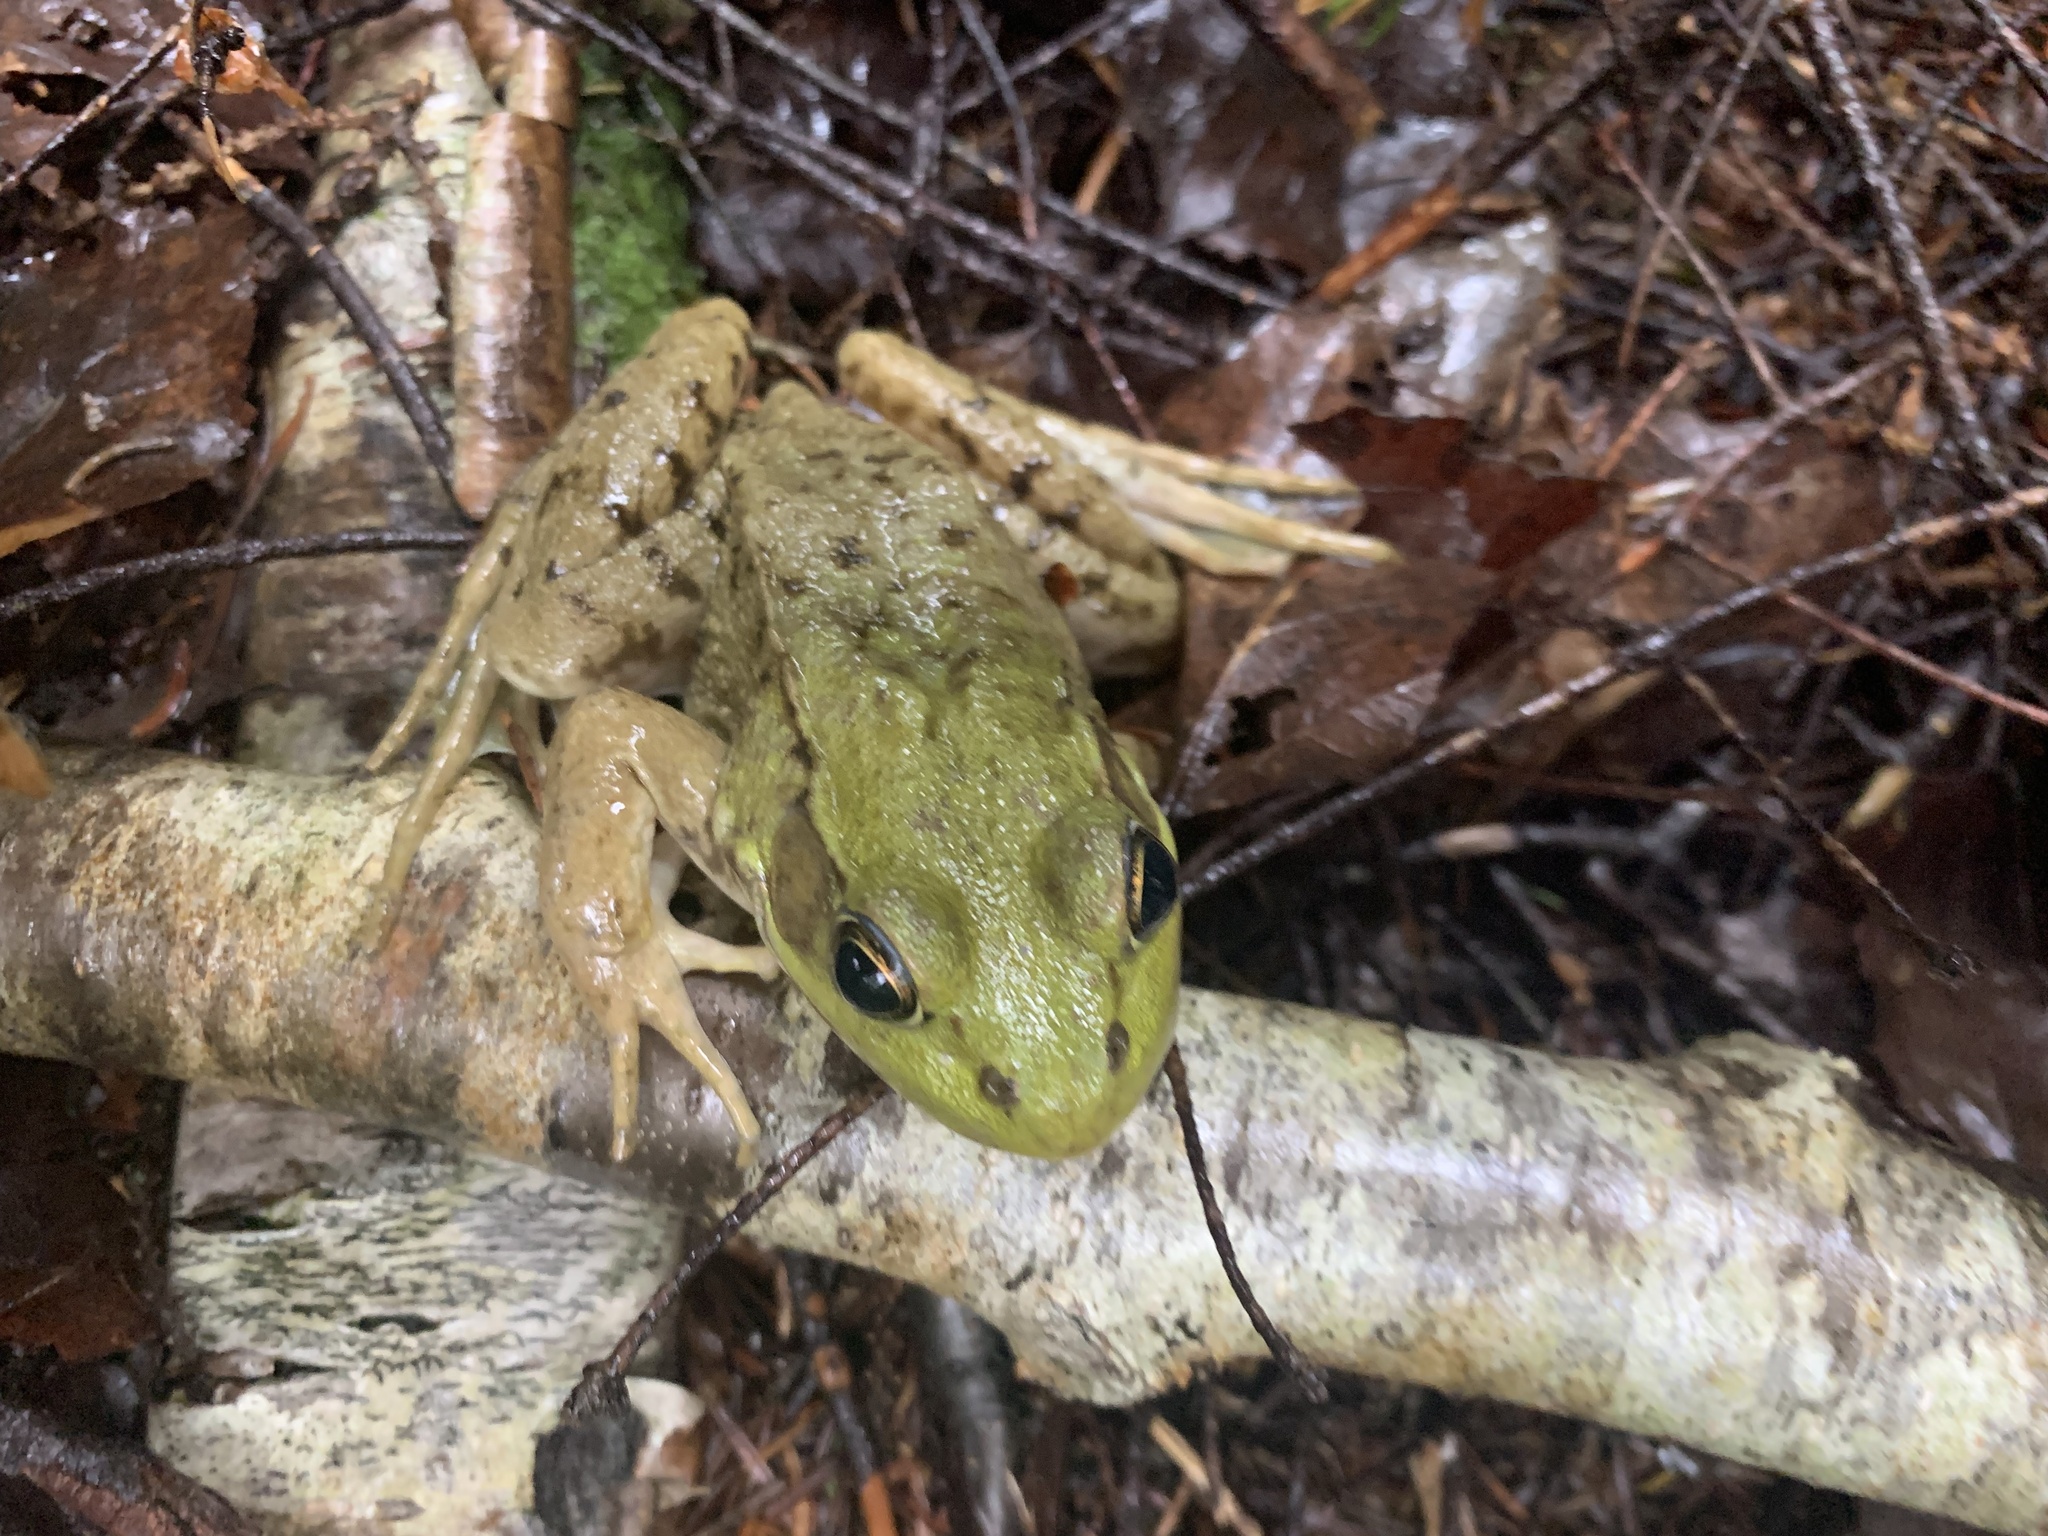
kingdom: Animalia
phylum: Chordata
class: Amphibia
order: Anura
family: Ranidae
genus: Lithobates
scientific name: Lithobates clamitans
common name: Green frog
